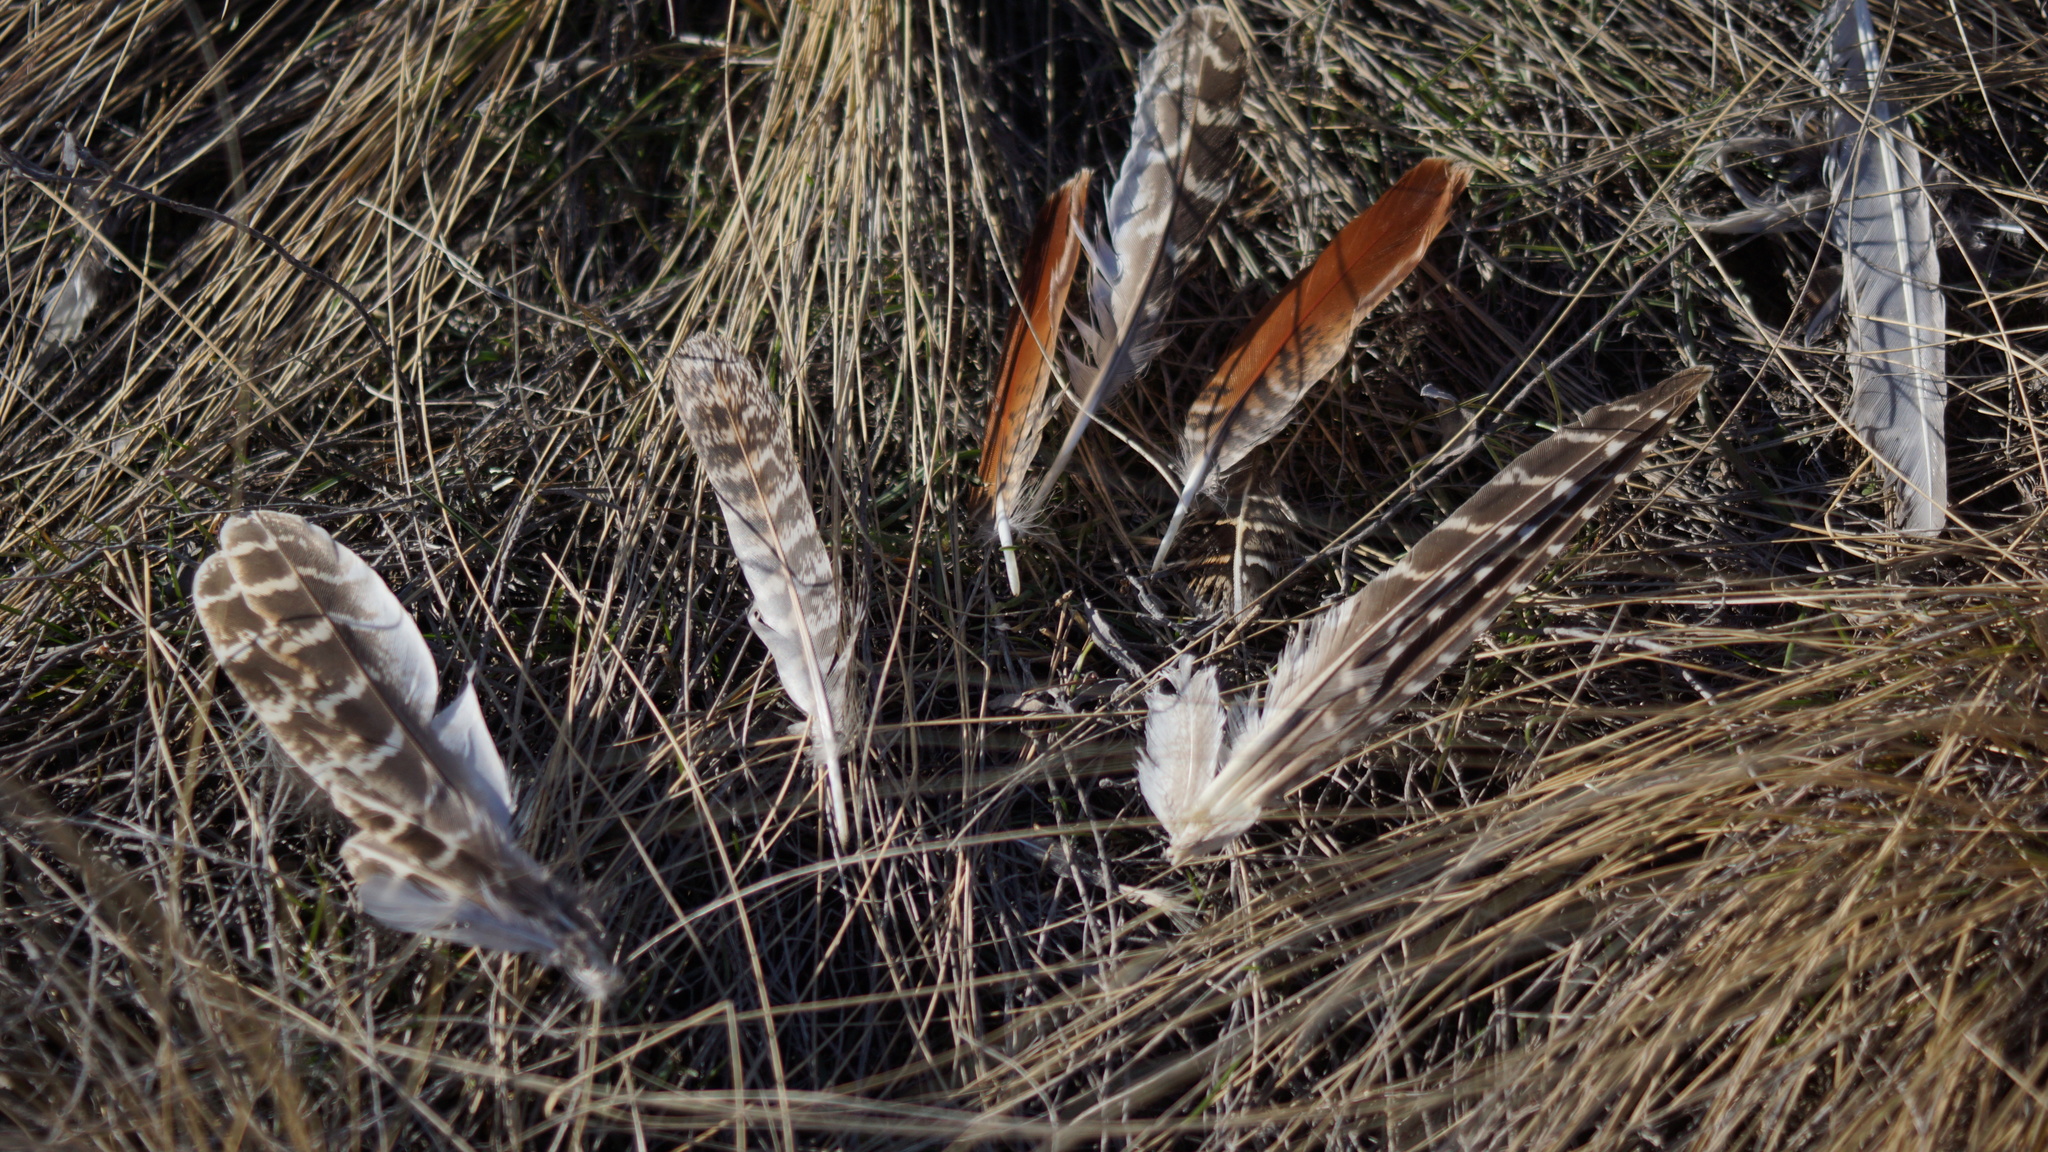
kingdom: Animalia
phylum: Chordata
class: Aves
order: Galliformes
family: Phasianidae
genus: Perdix
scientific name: Perdix perdix
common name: Grey partridge
